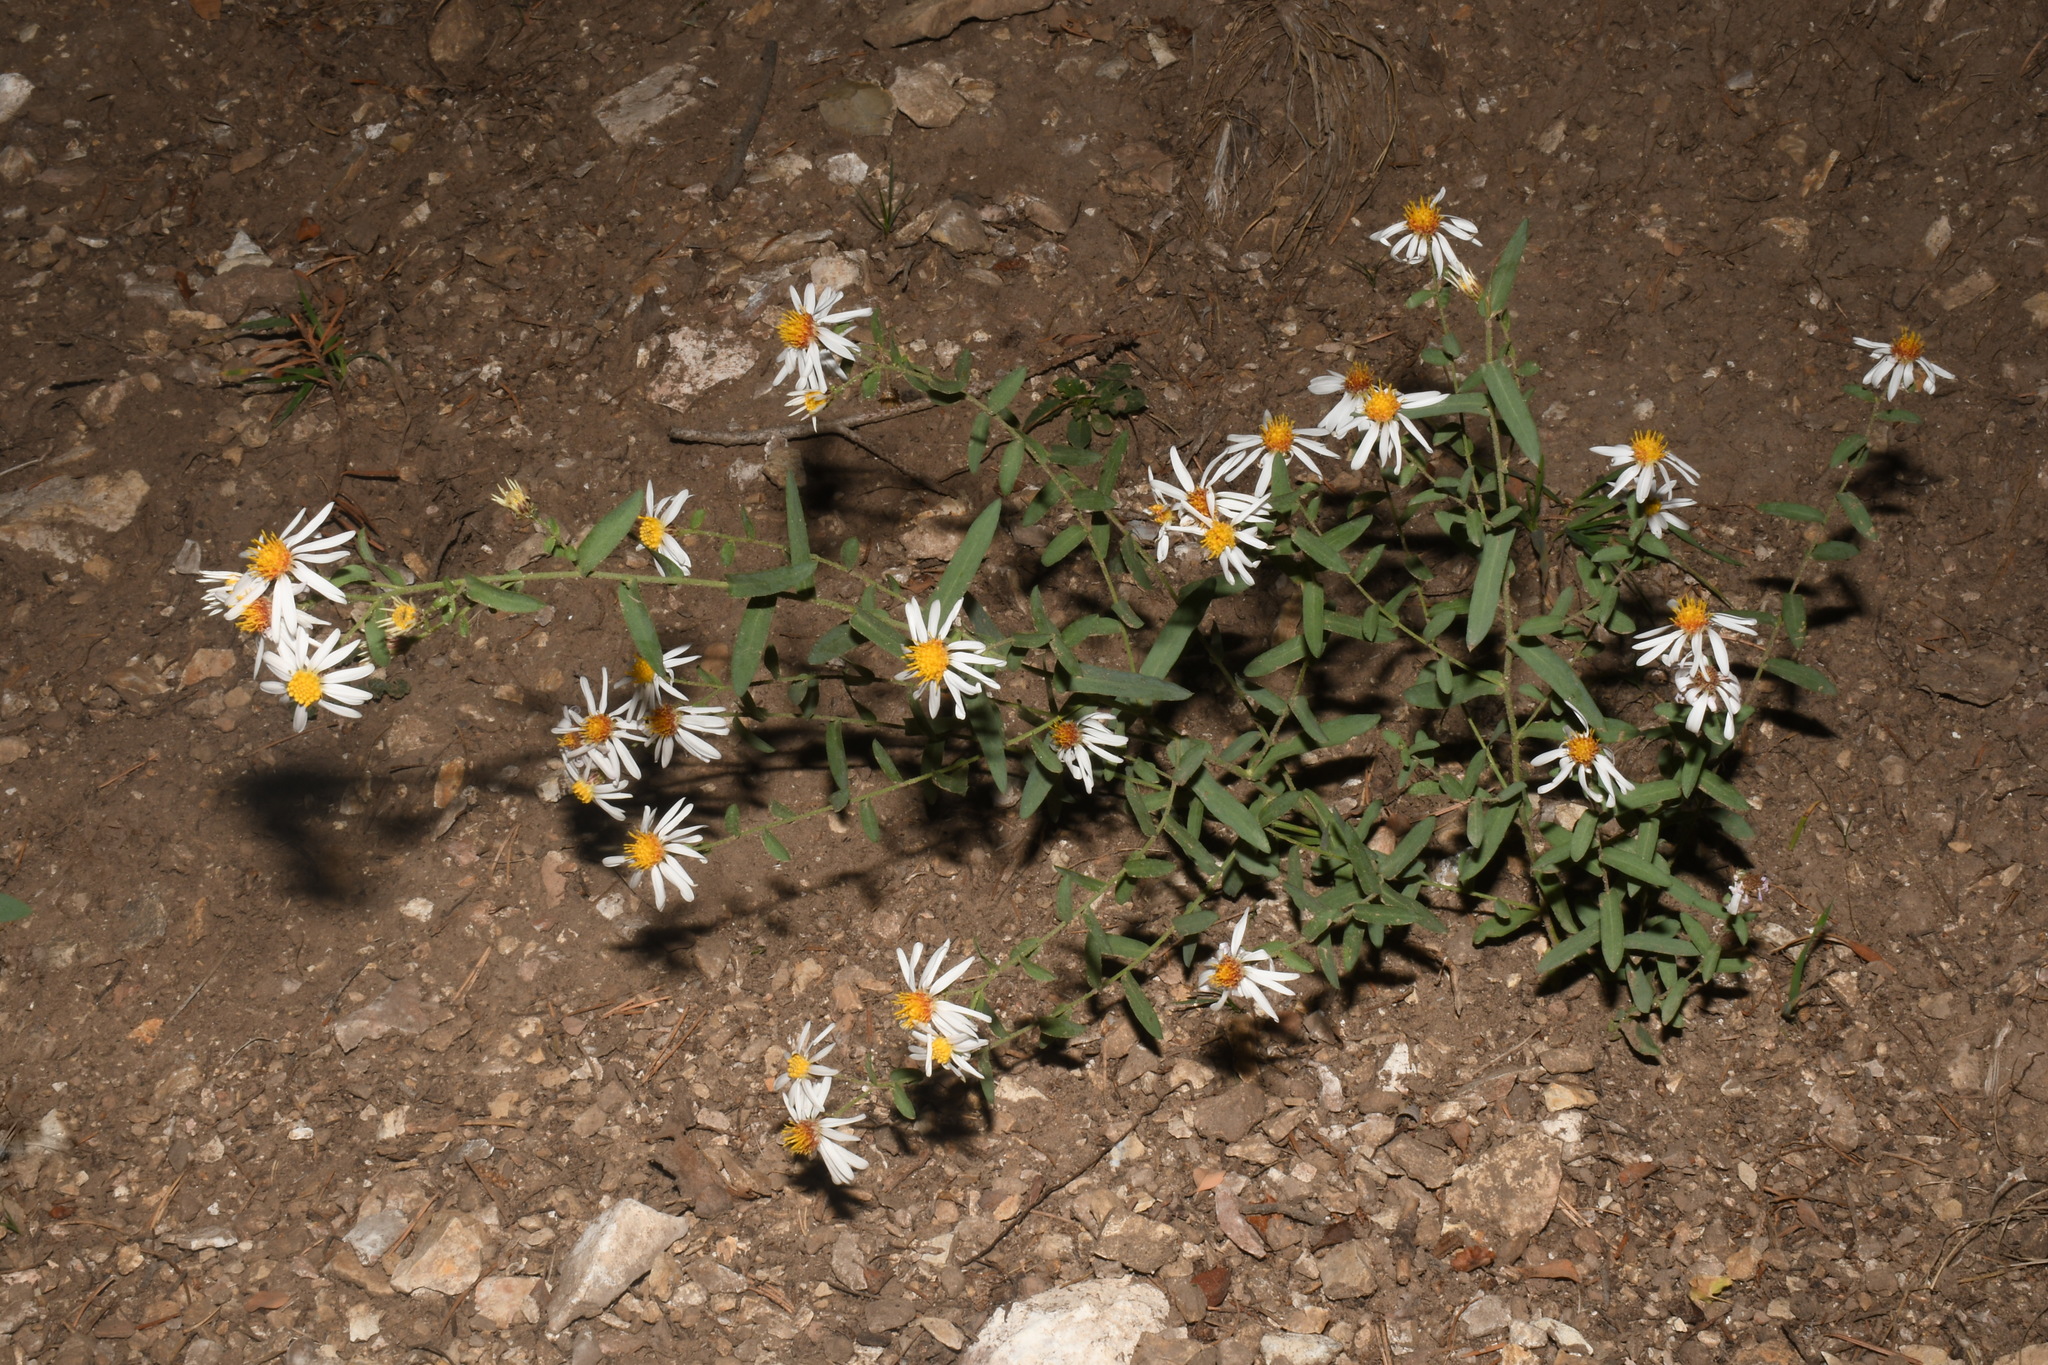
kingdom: Plantae
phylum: Tracheophyta
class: Magnoliopsida
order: Asterales
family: Asteraceae
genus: Eurybia
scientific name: Eurybia glauca
